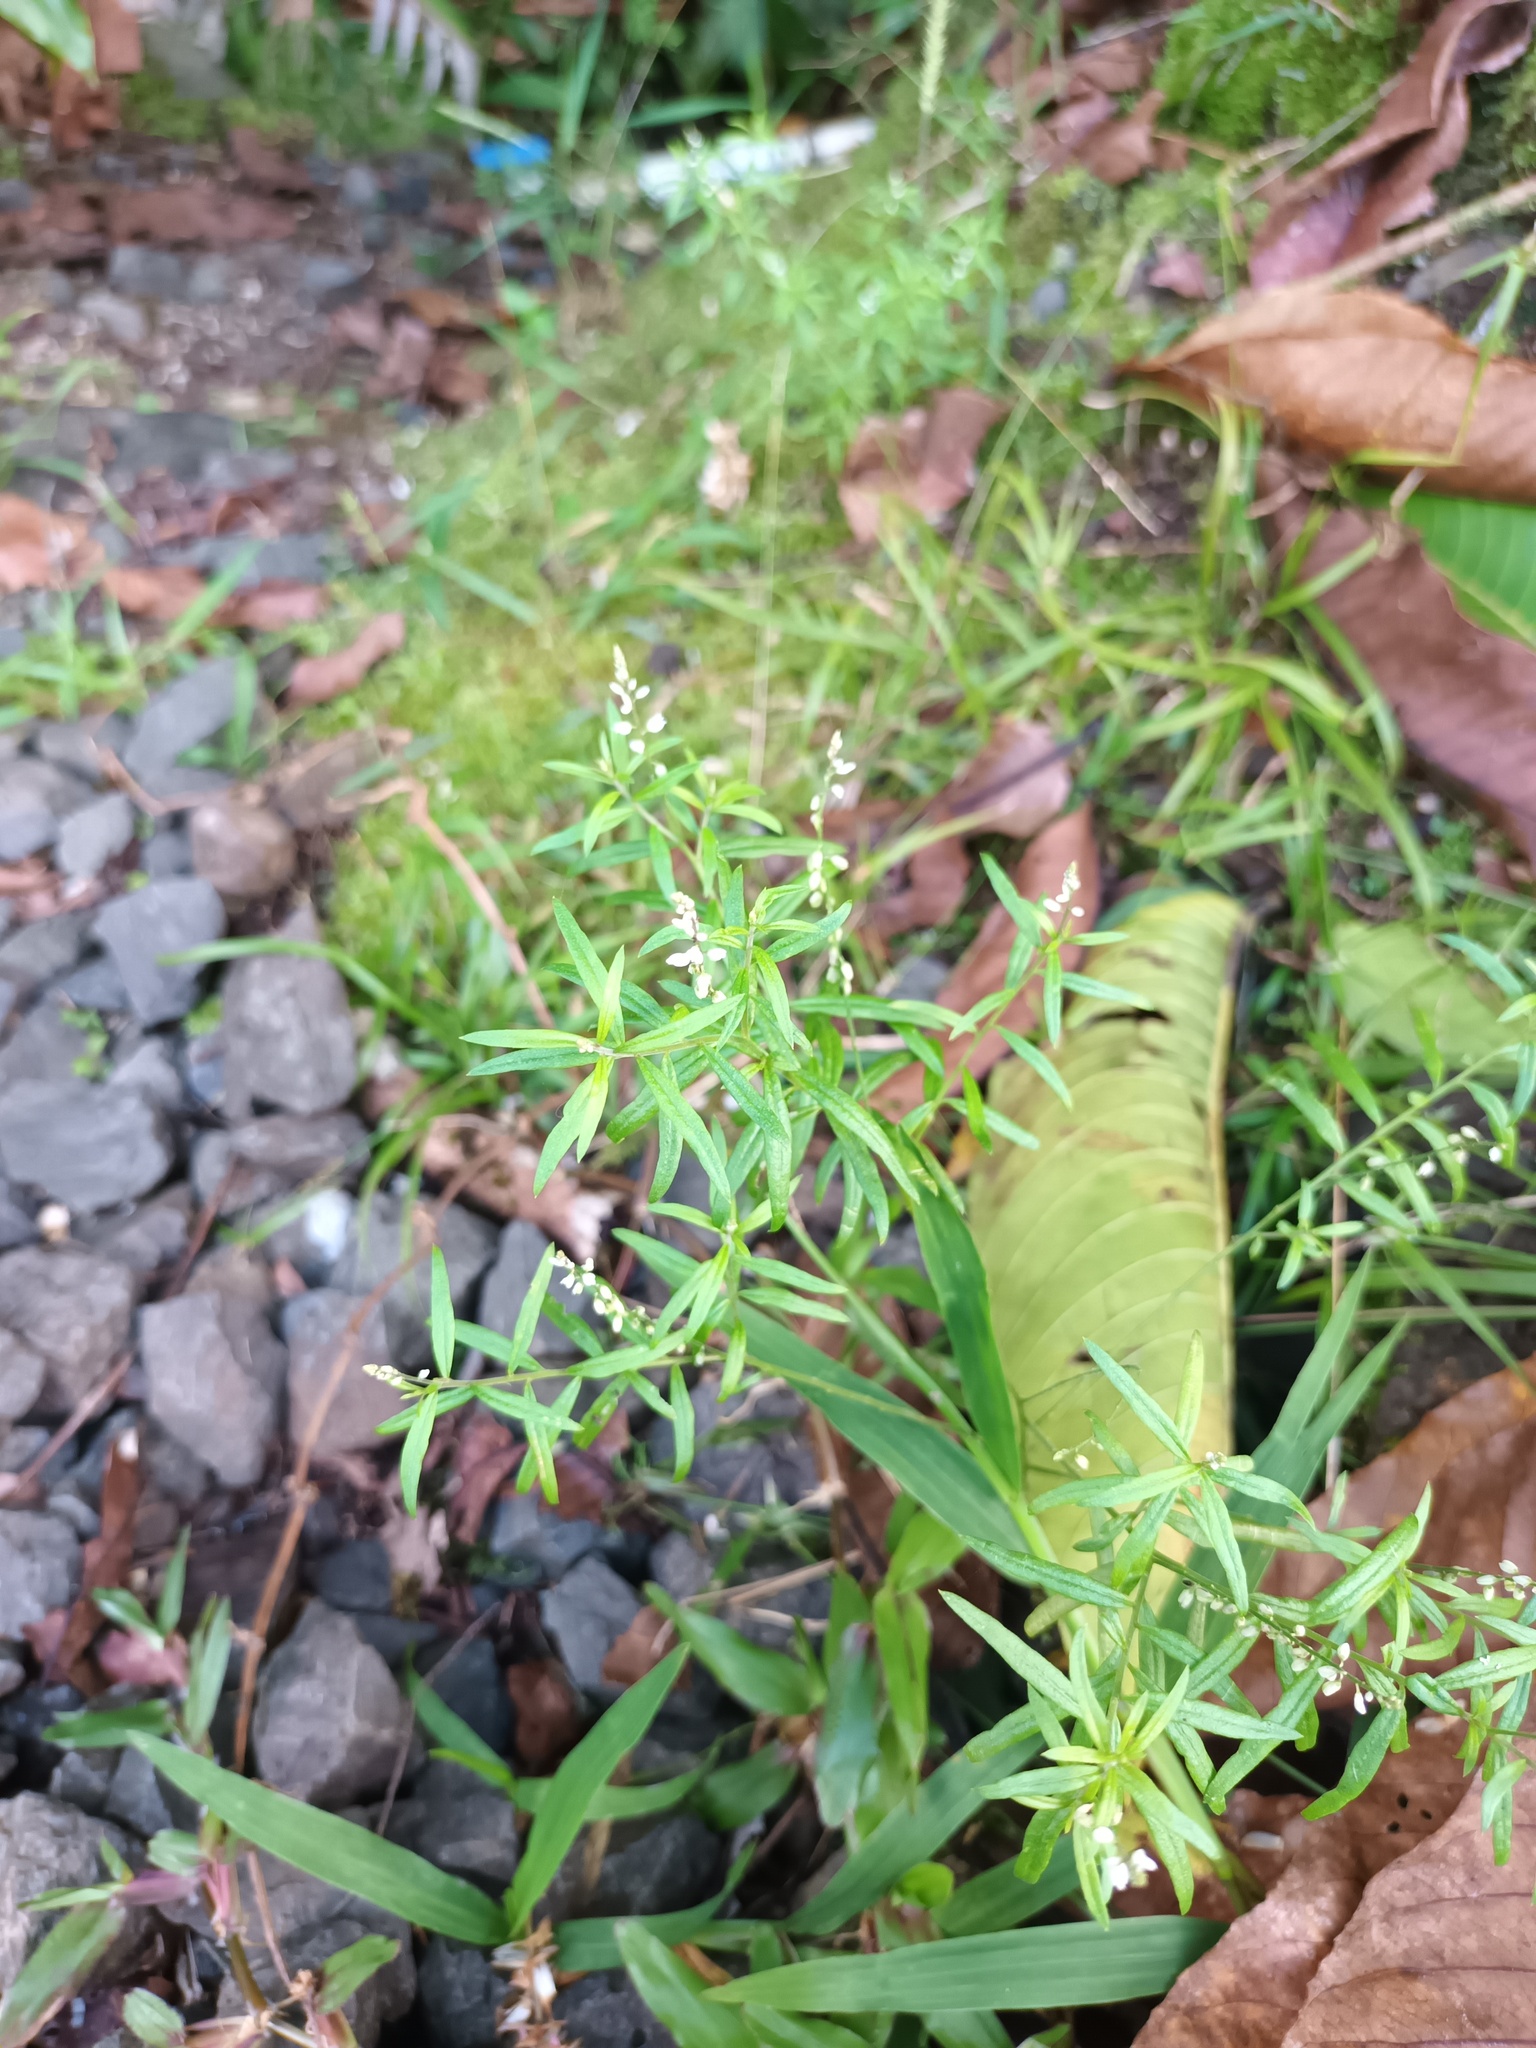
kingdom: Plantae
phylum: Tracheophyta
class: Magnoliopsida
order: Fabales
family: Polygalaceae
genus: Polygala
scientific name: Polygala paniculata
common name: Orosne
